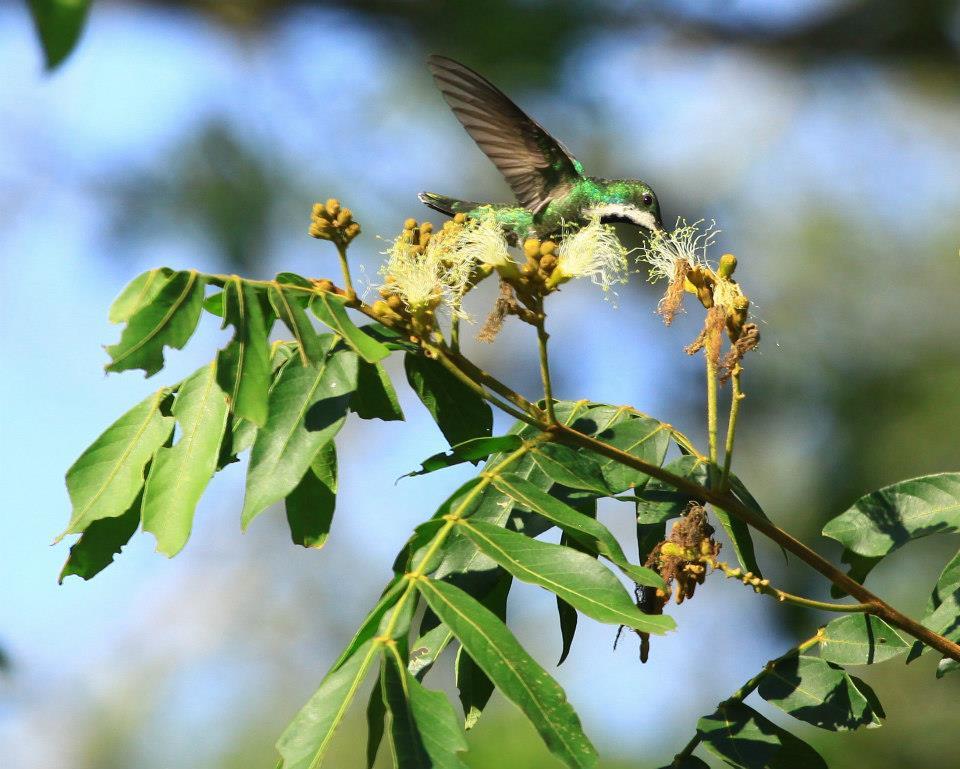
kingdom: Animalia
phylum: Chordata
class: Aves
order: Apodiformes
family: Trochilidae
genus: Anthracothorax
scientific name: Anthracothorax nigricollis
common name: Black-throated mango
